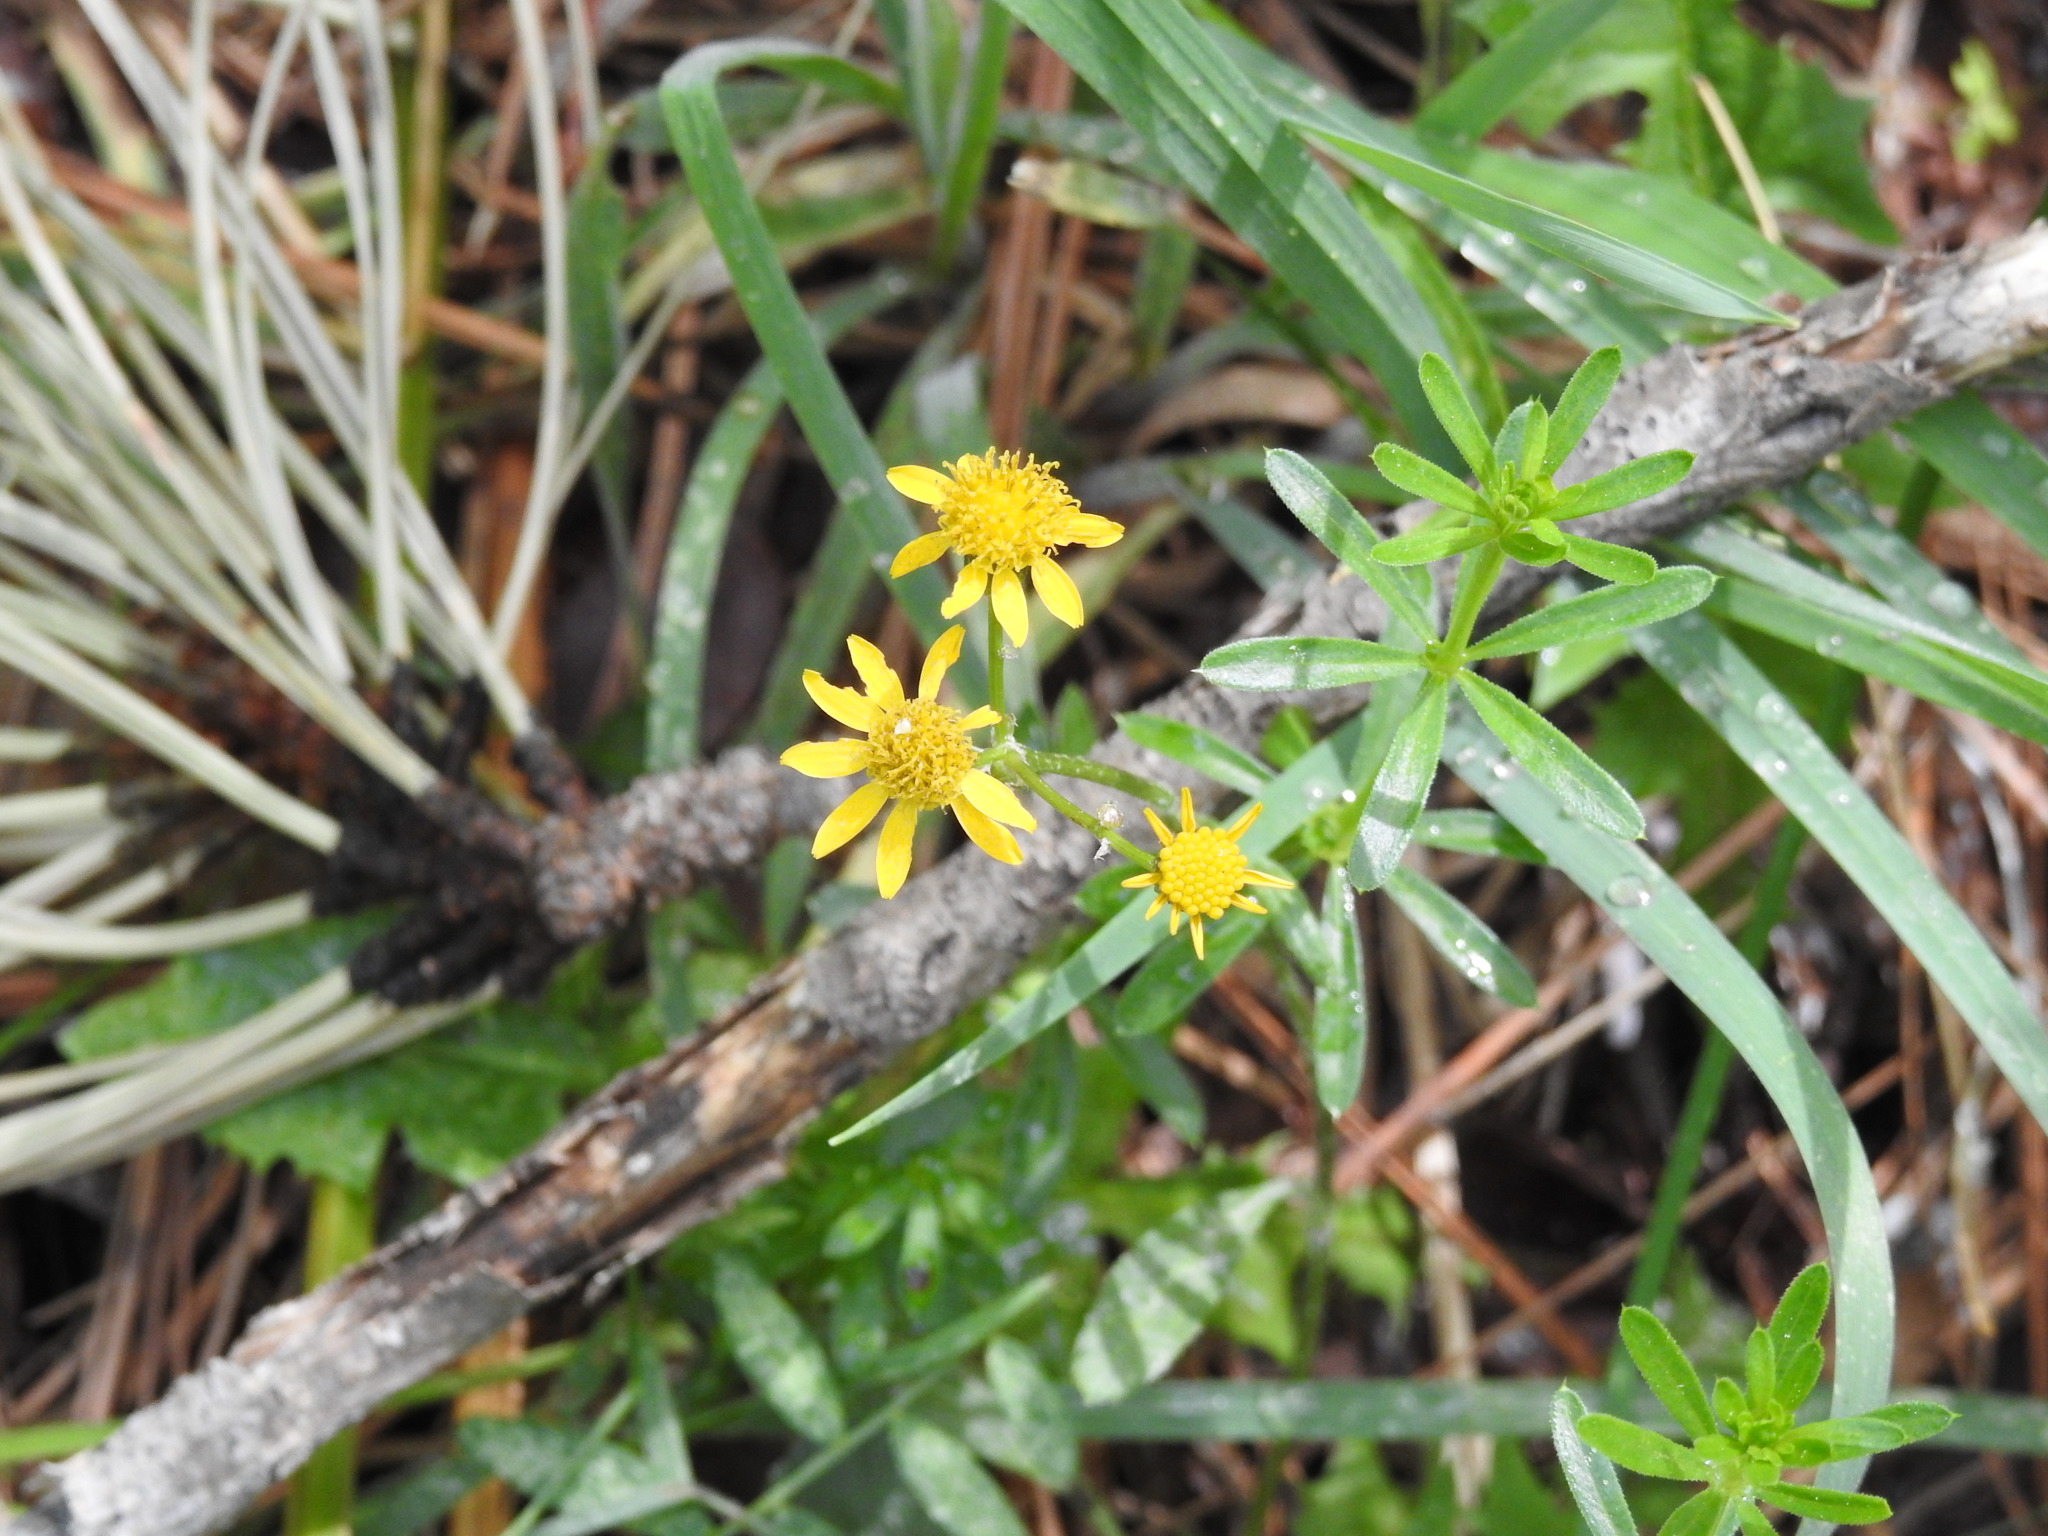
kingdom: Plantae
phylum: Tracheophyta
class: Magnoliopsida
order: Asterales
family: Asteraceae
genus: Packera
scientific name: Packera
